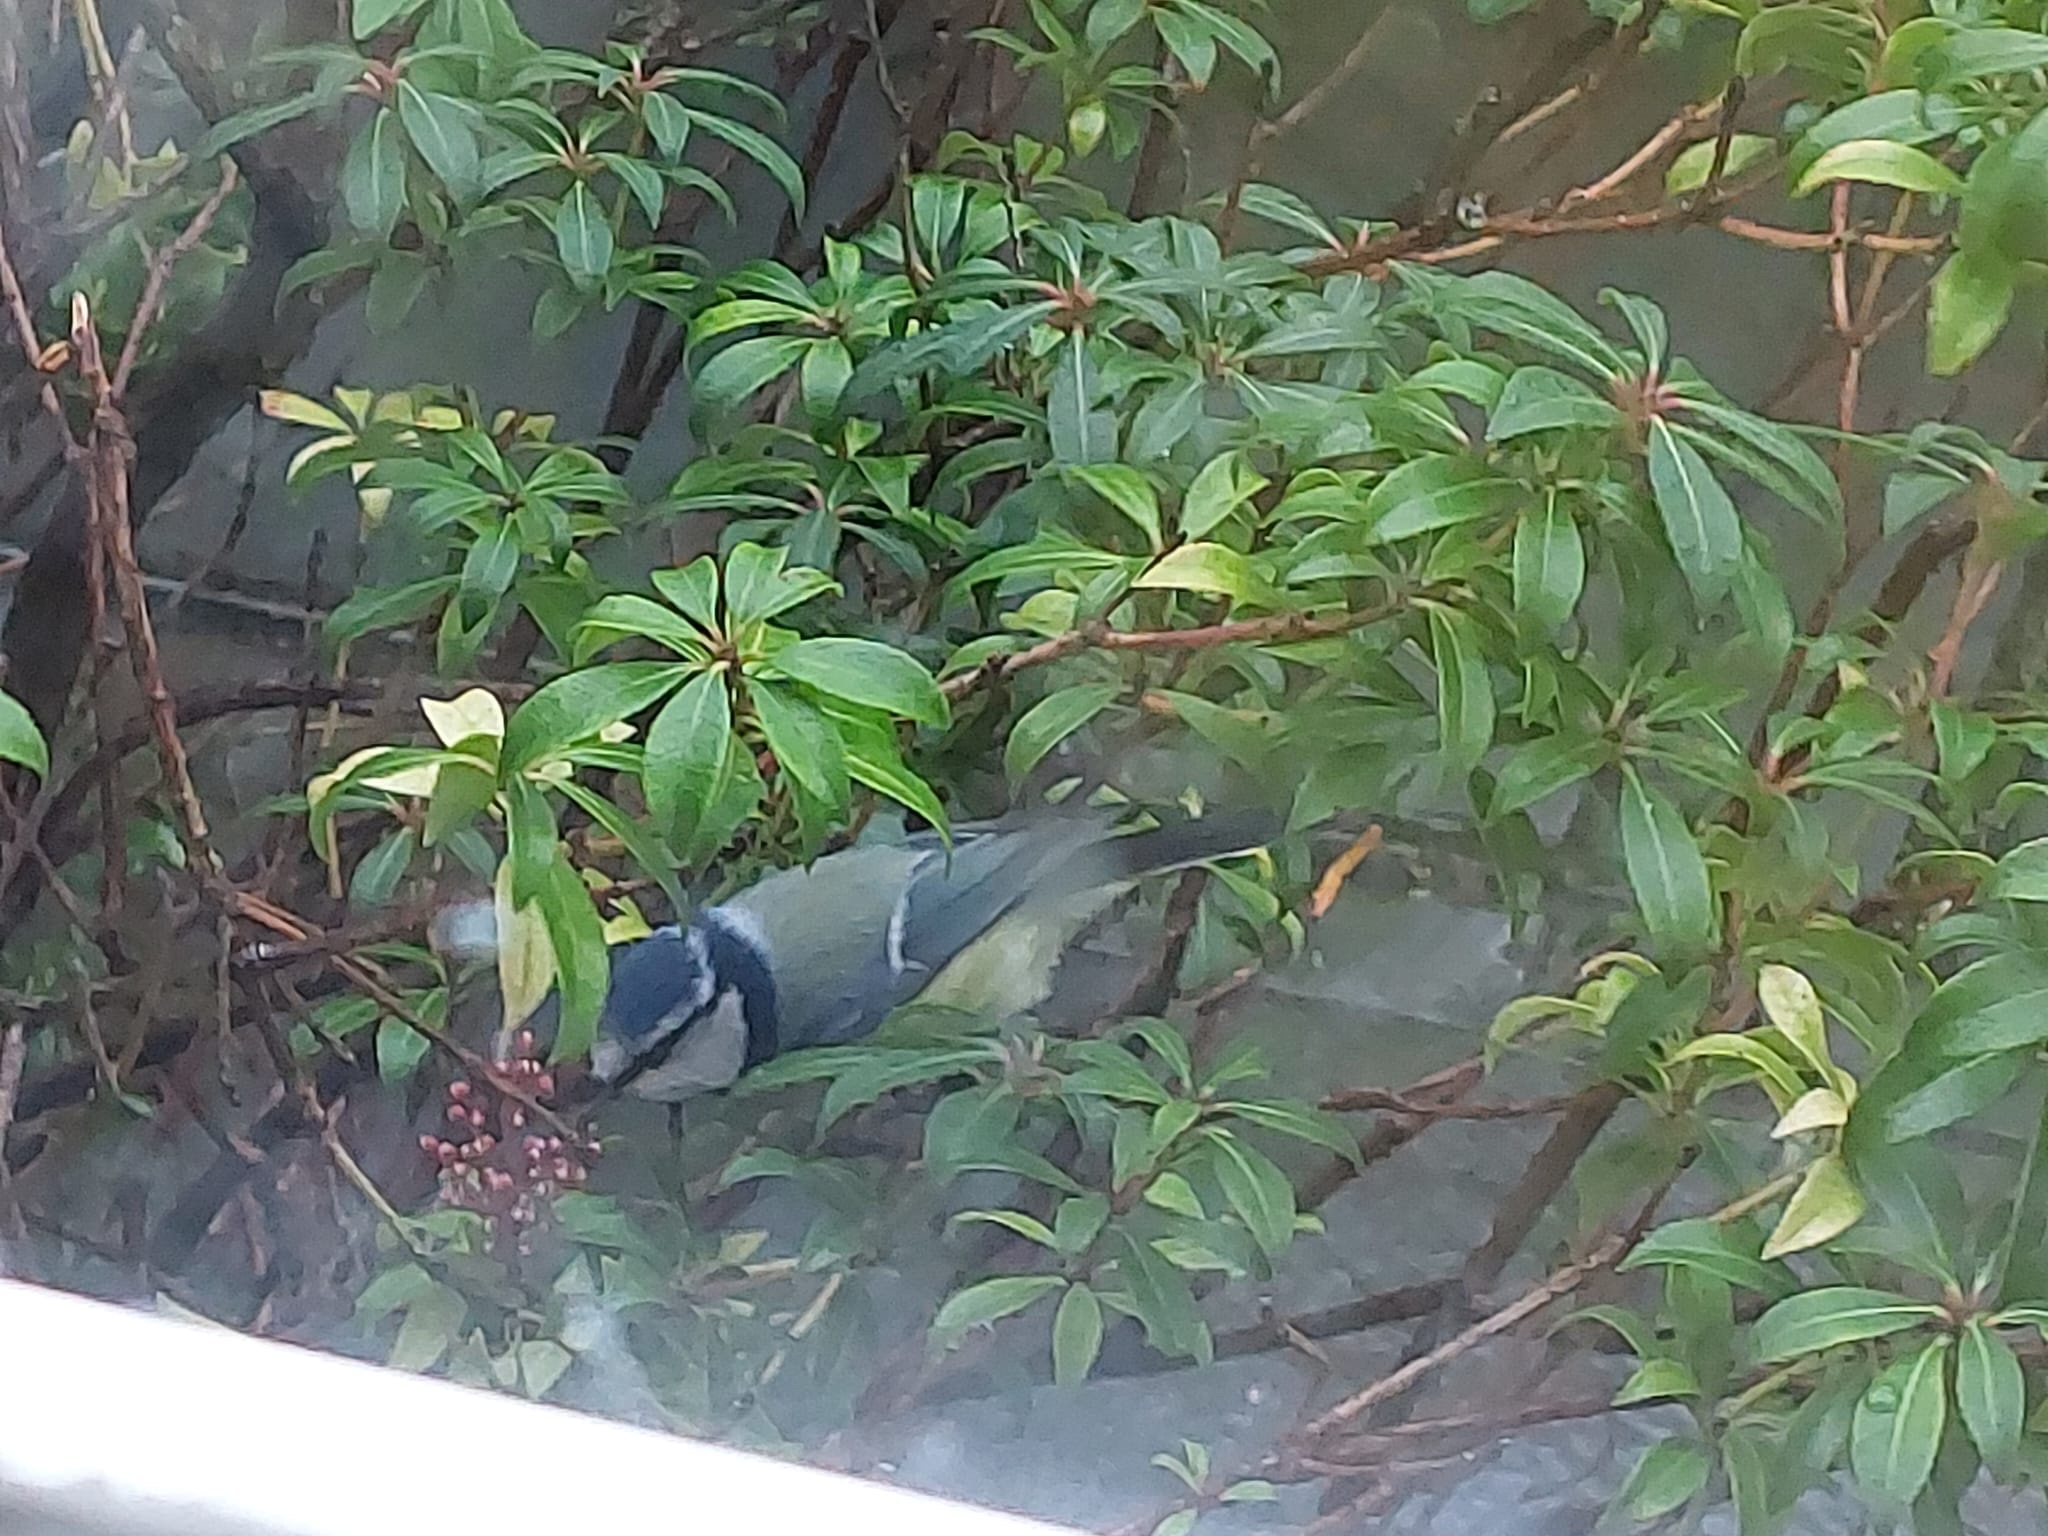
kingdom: Animalia
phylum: Chordata
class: Aves
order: Passeriformes
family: Paridae
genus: Cyanistes
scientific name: Cyanistes caeruleus
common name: Eurasian blue tit
